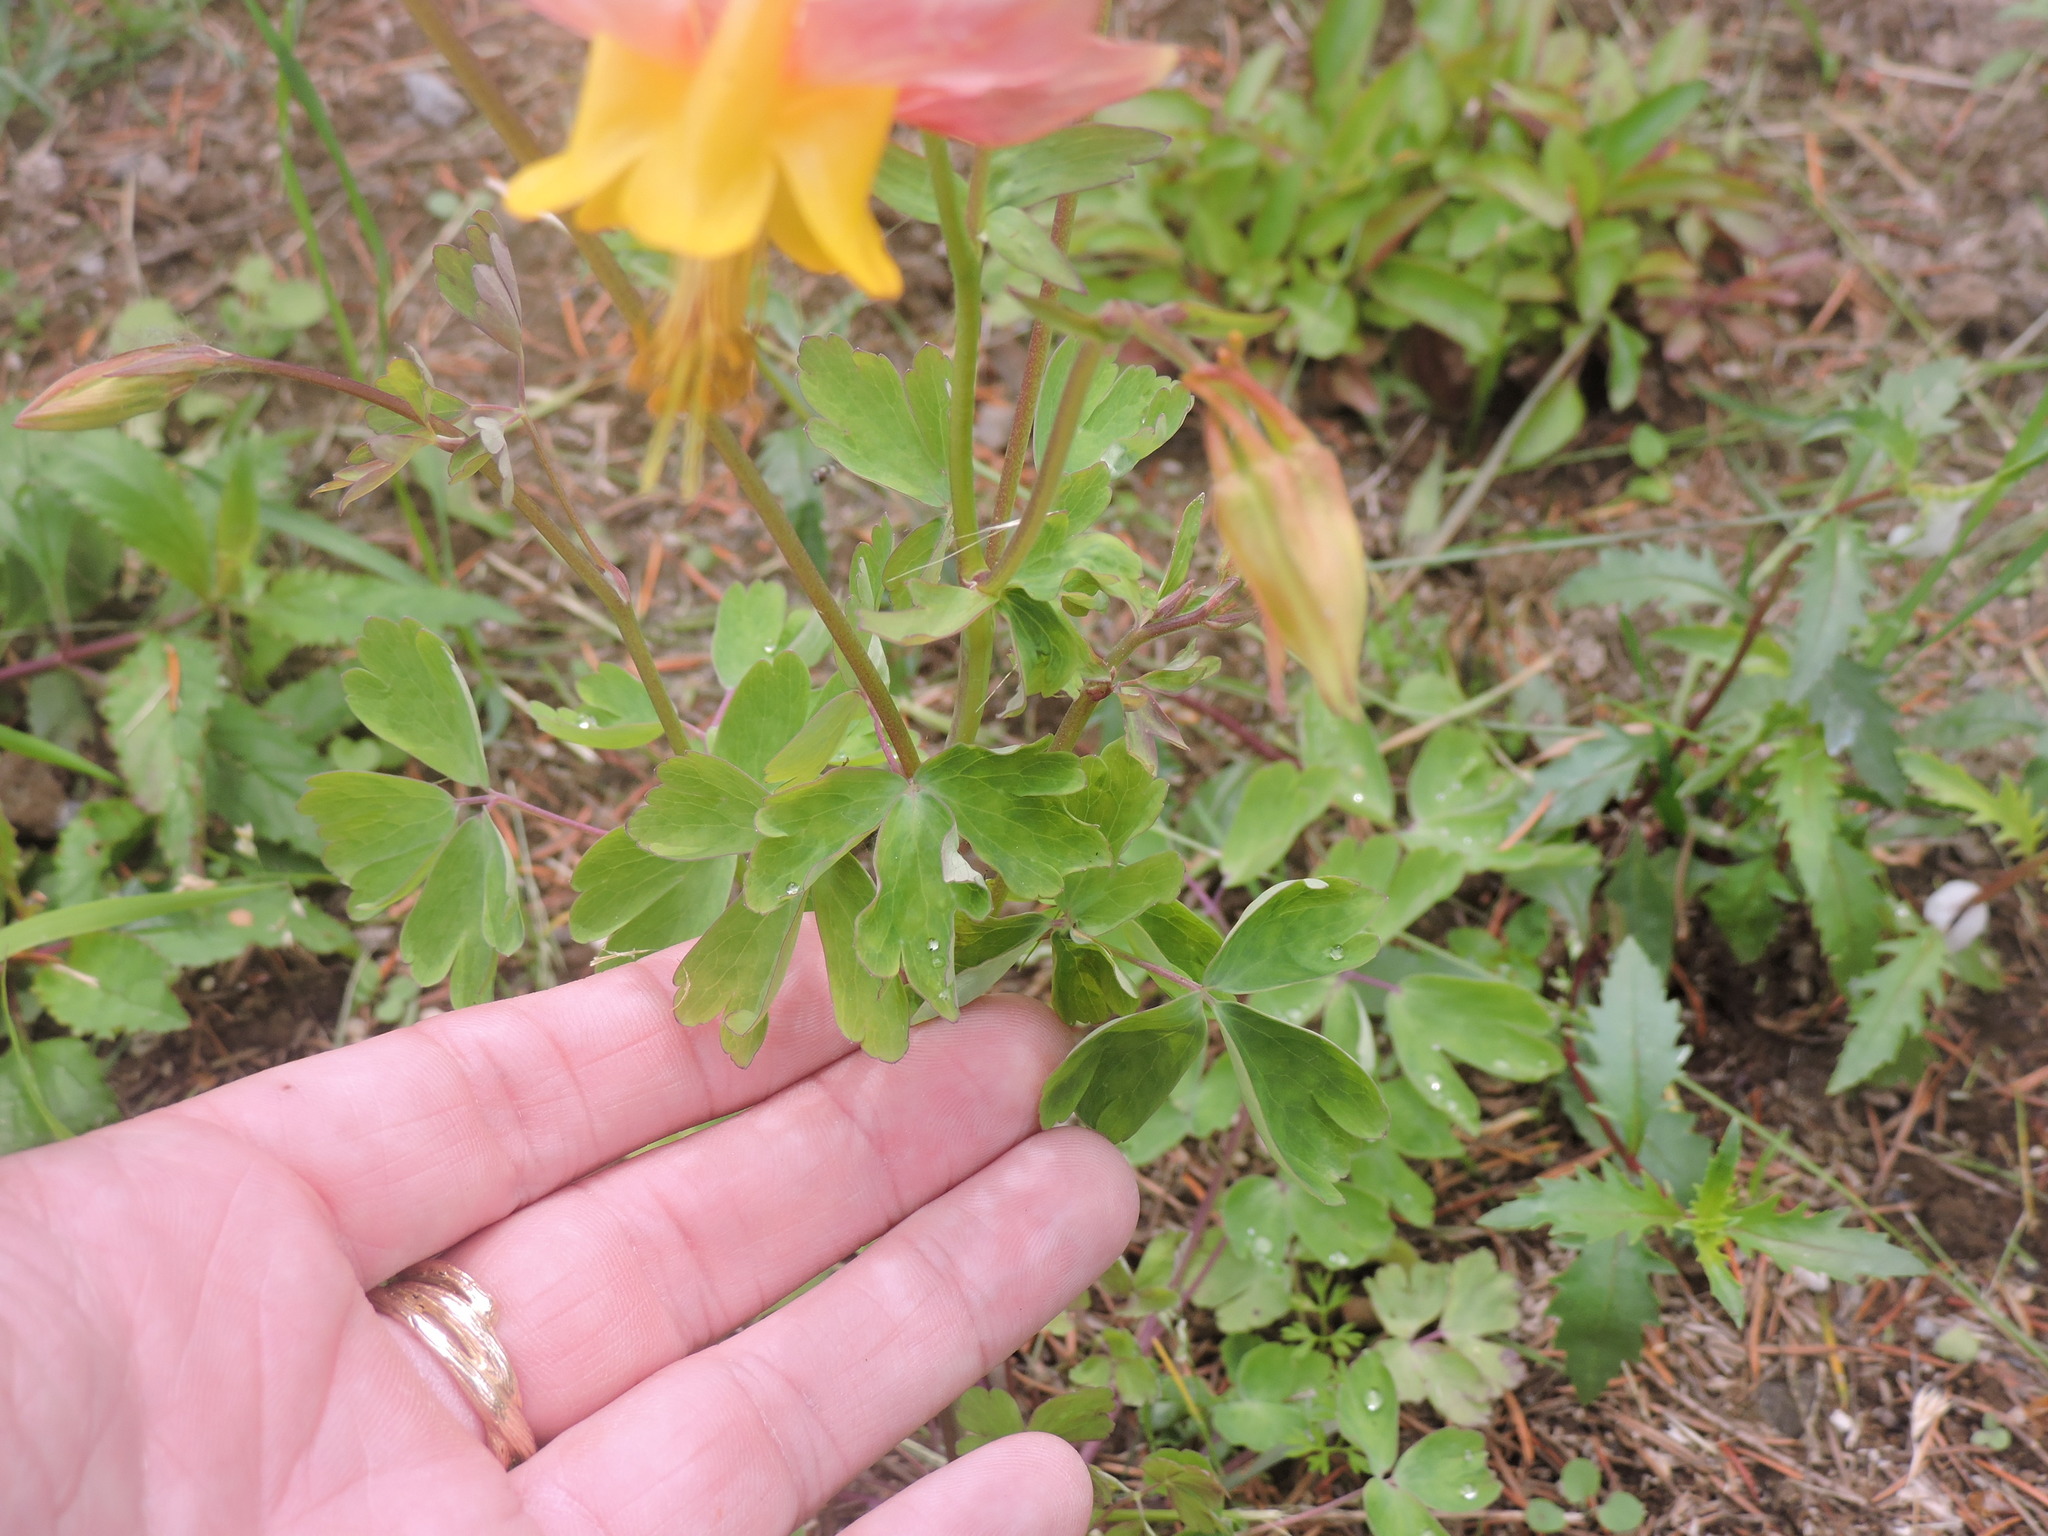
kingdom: Plantae
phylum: Tracheophyta
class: Magnoliopsida
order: Ranunculales
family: Ranunculaceae
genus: Aquilegia
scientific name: Aquilegia formosa
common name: Sitka columbine
